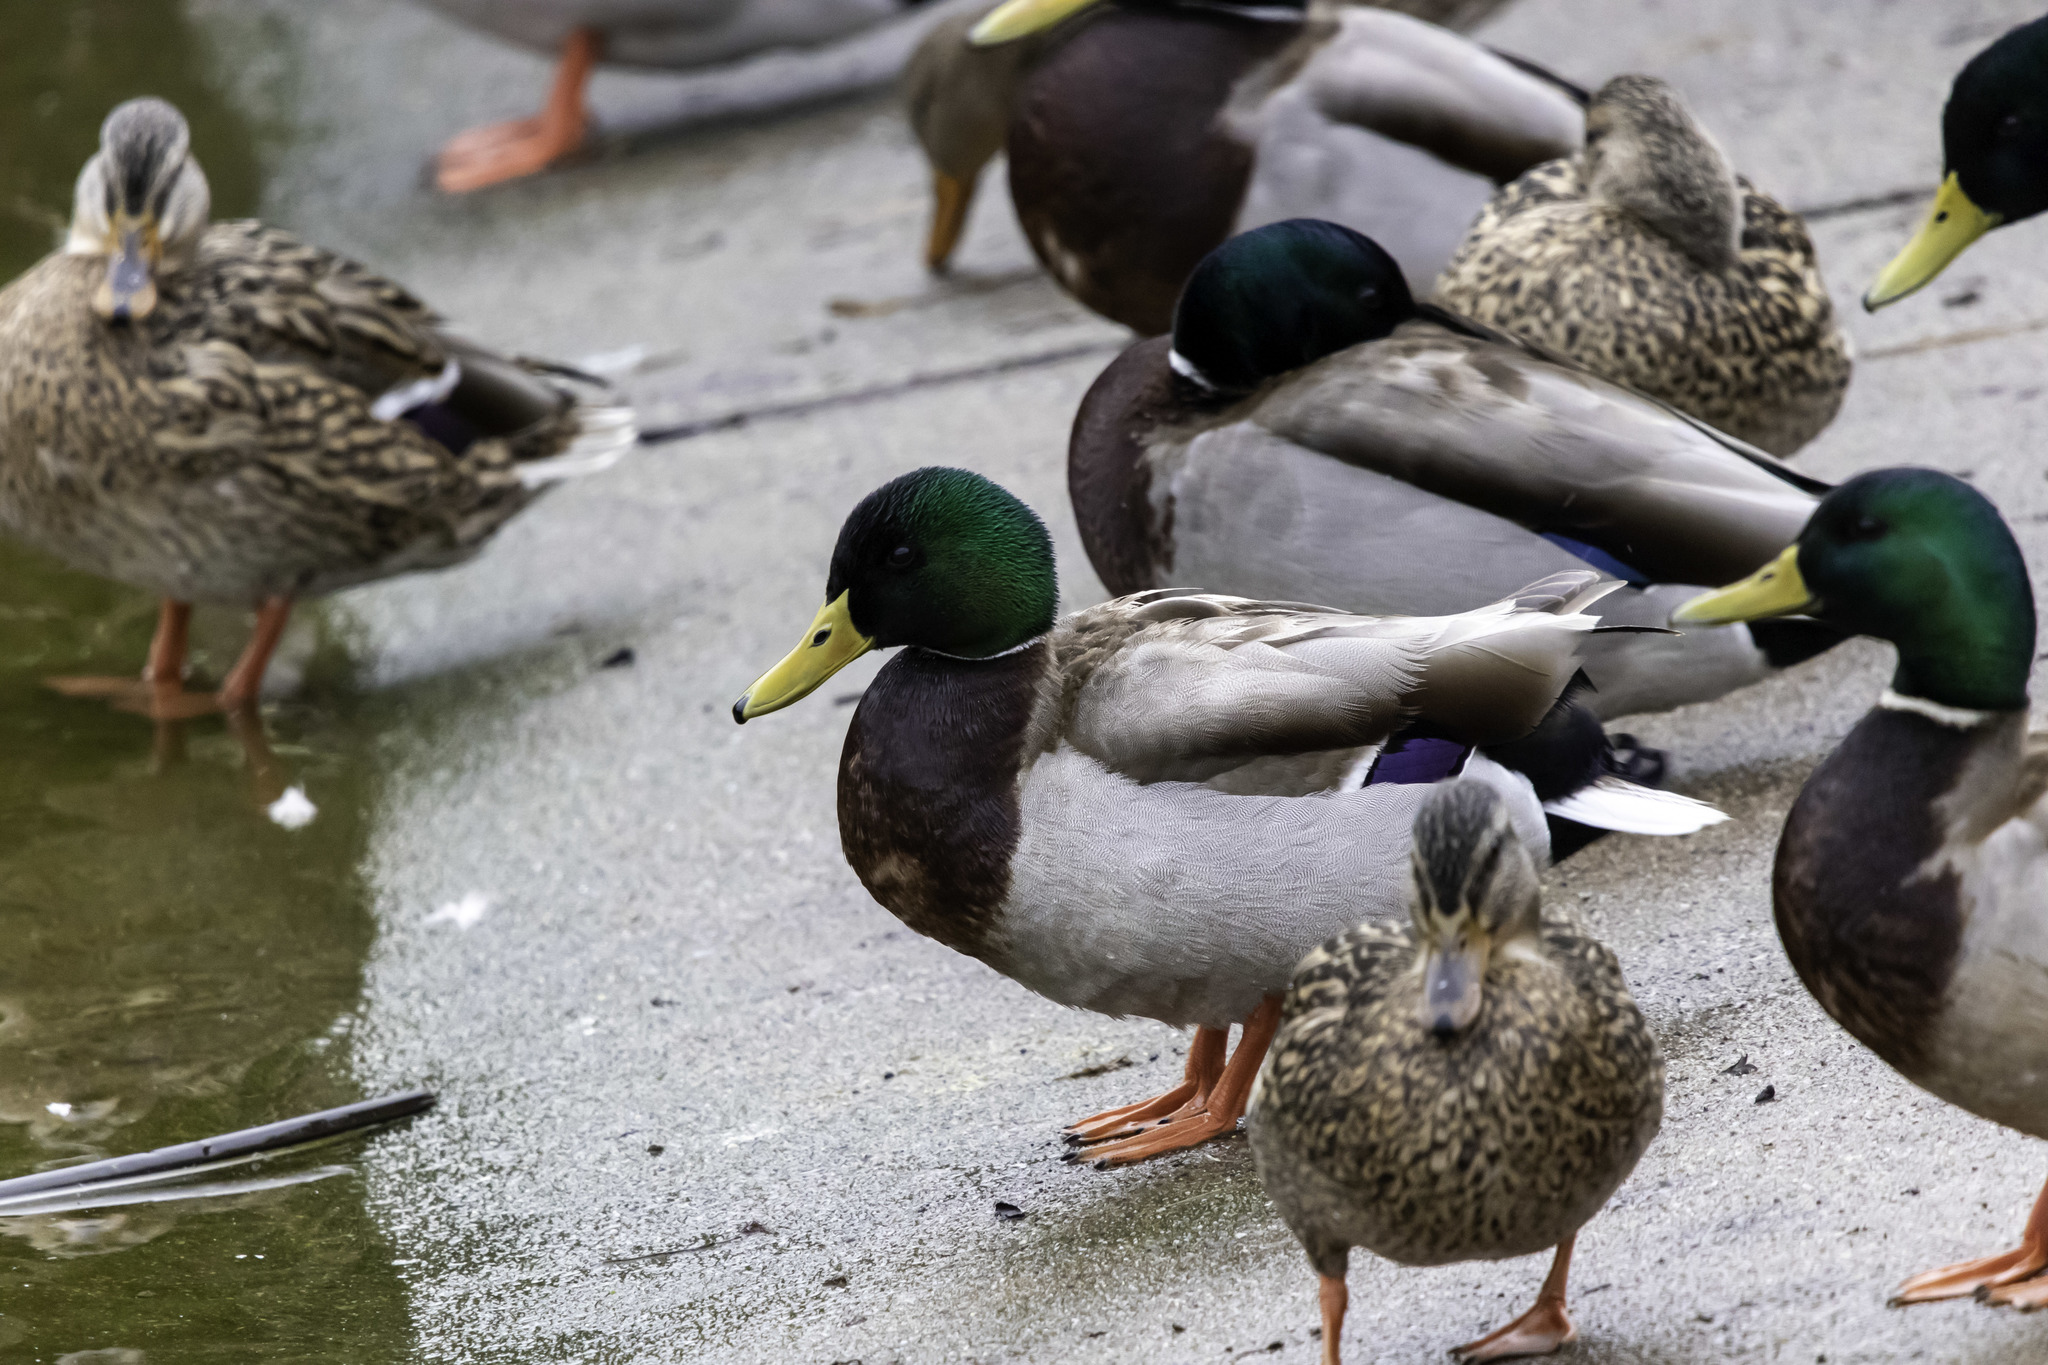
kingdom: Animalia
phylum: Chordata
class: Aves
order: Anseriformes
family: Anatidae
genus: Anas
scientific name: Anas platyrhynchos
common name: Mallard
